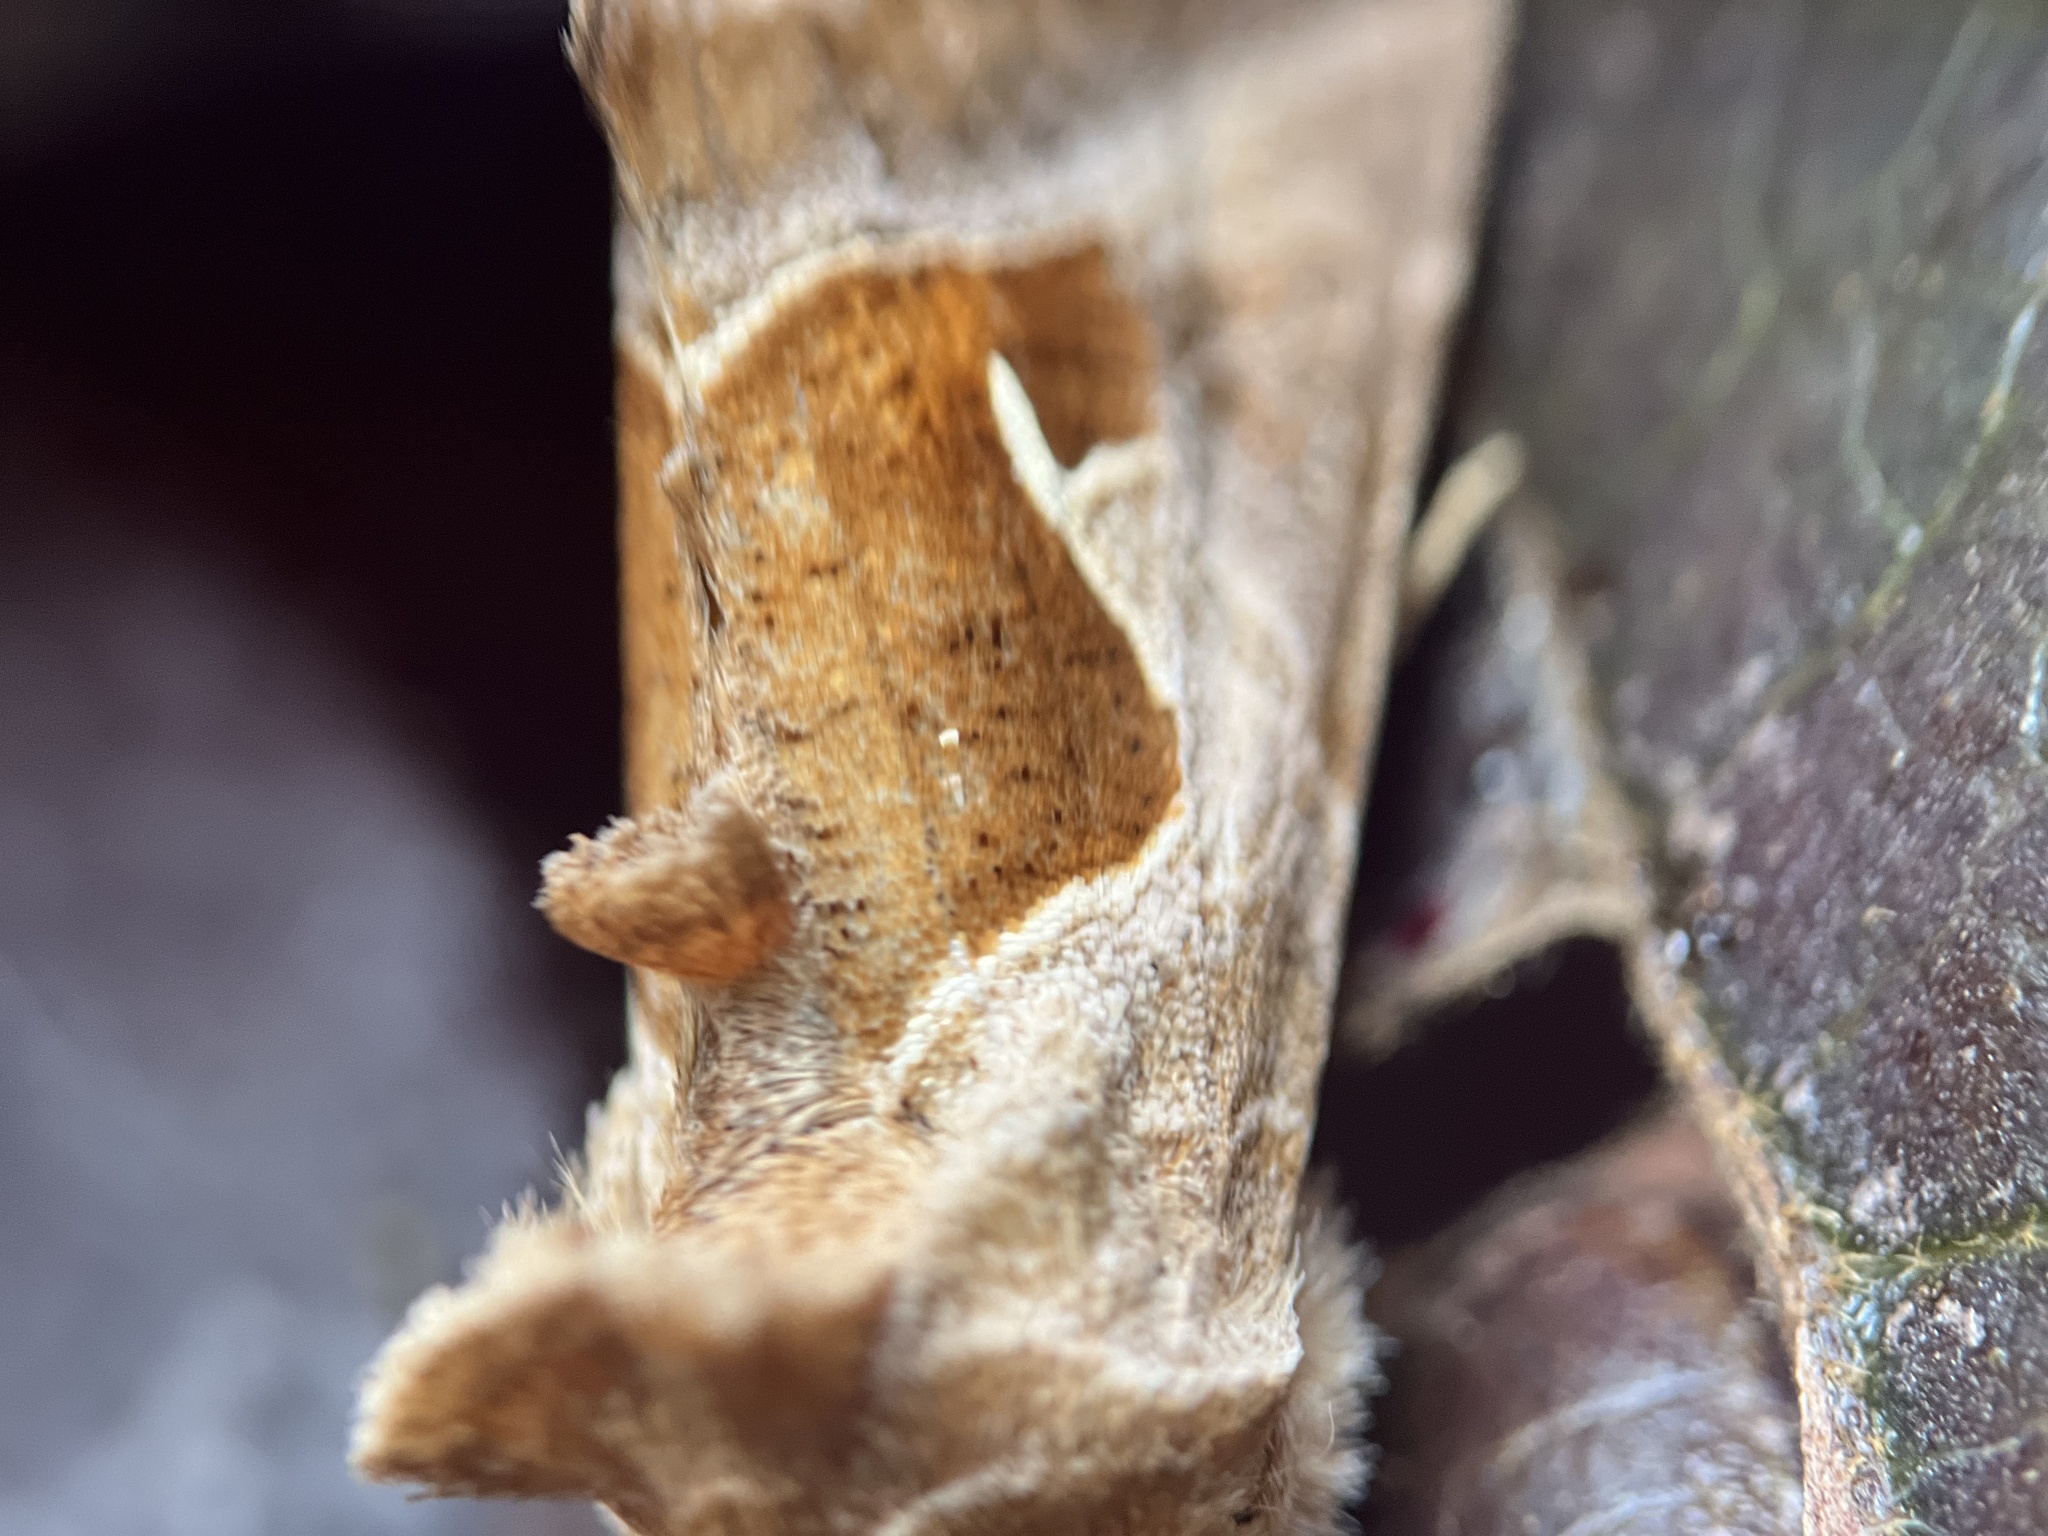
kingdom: Animalia
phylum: Arthropoda
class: Insecta
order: Lepidoptera
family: Noctuidae
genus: Autographa
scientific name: Autographa pasiphaeia
